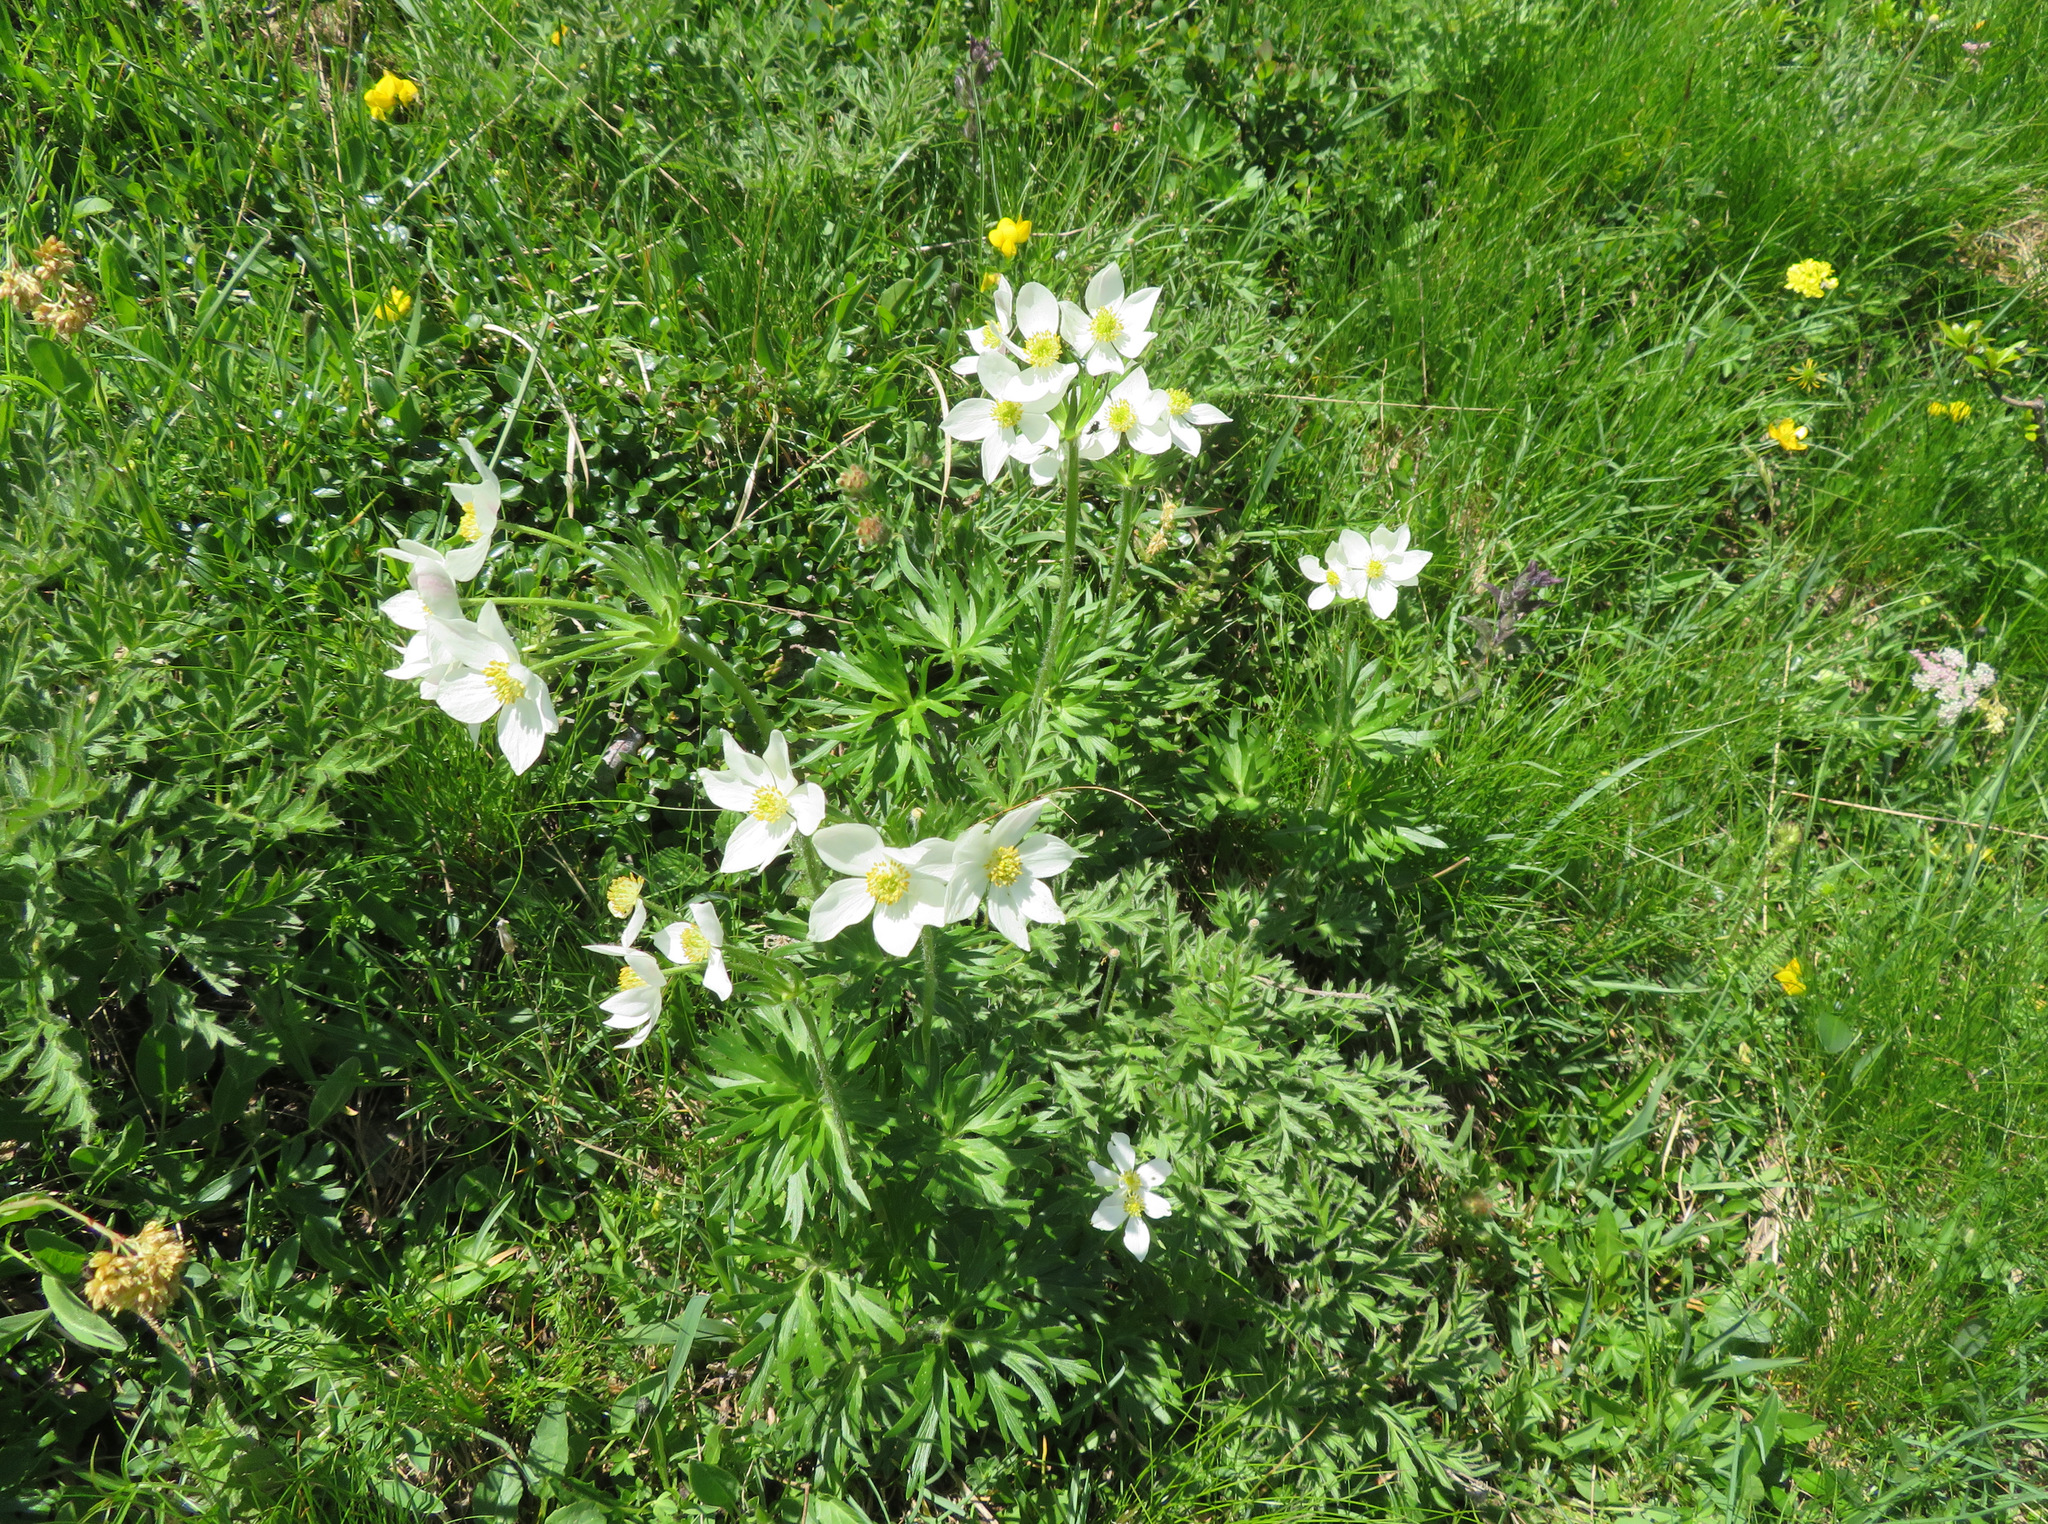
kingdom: Plantae
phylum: Tracheophyta
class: Magnoliopsida
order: Ranunculales
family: Ranunculaceae
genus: Anemonastrum
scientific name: Anemonastrum narcissiflorum
